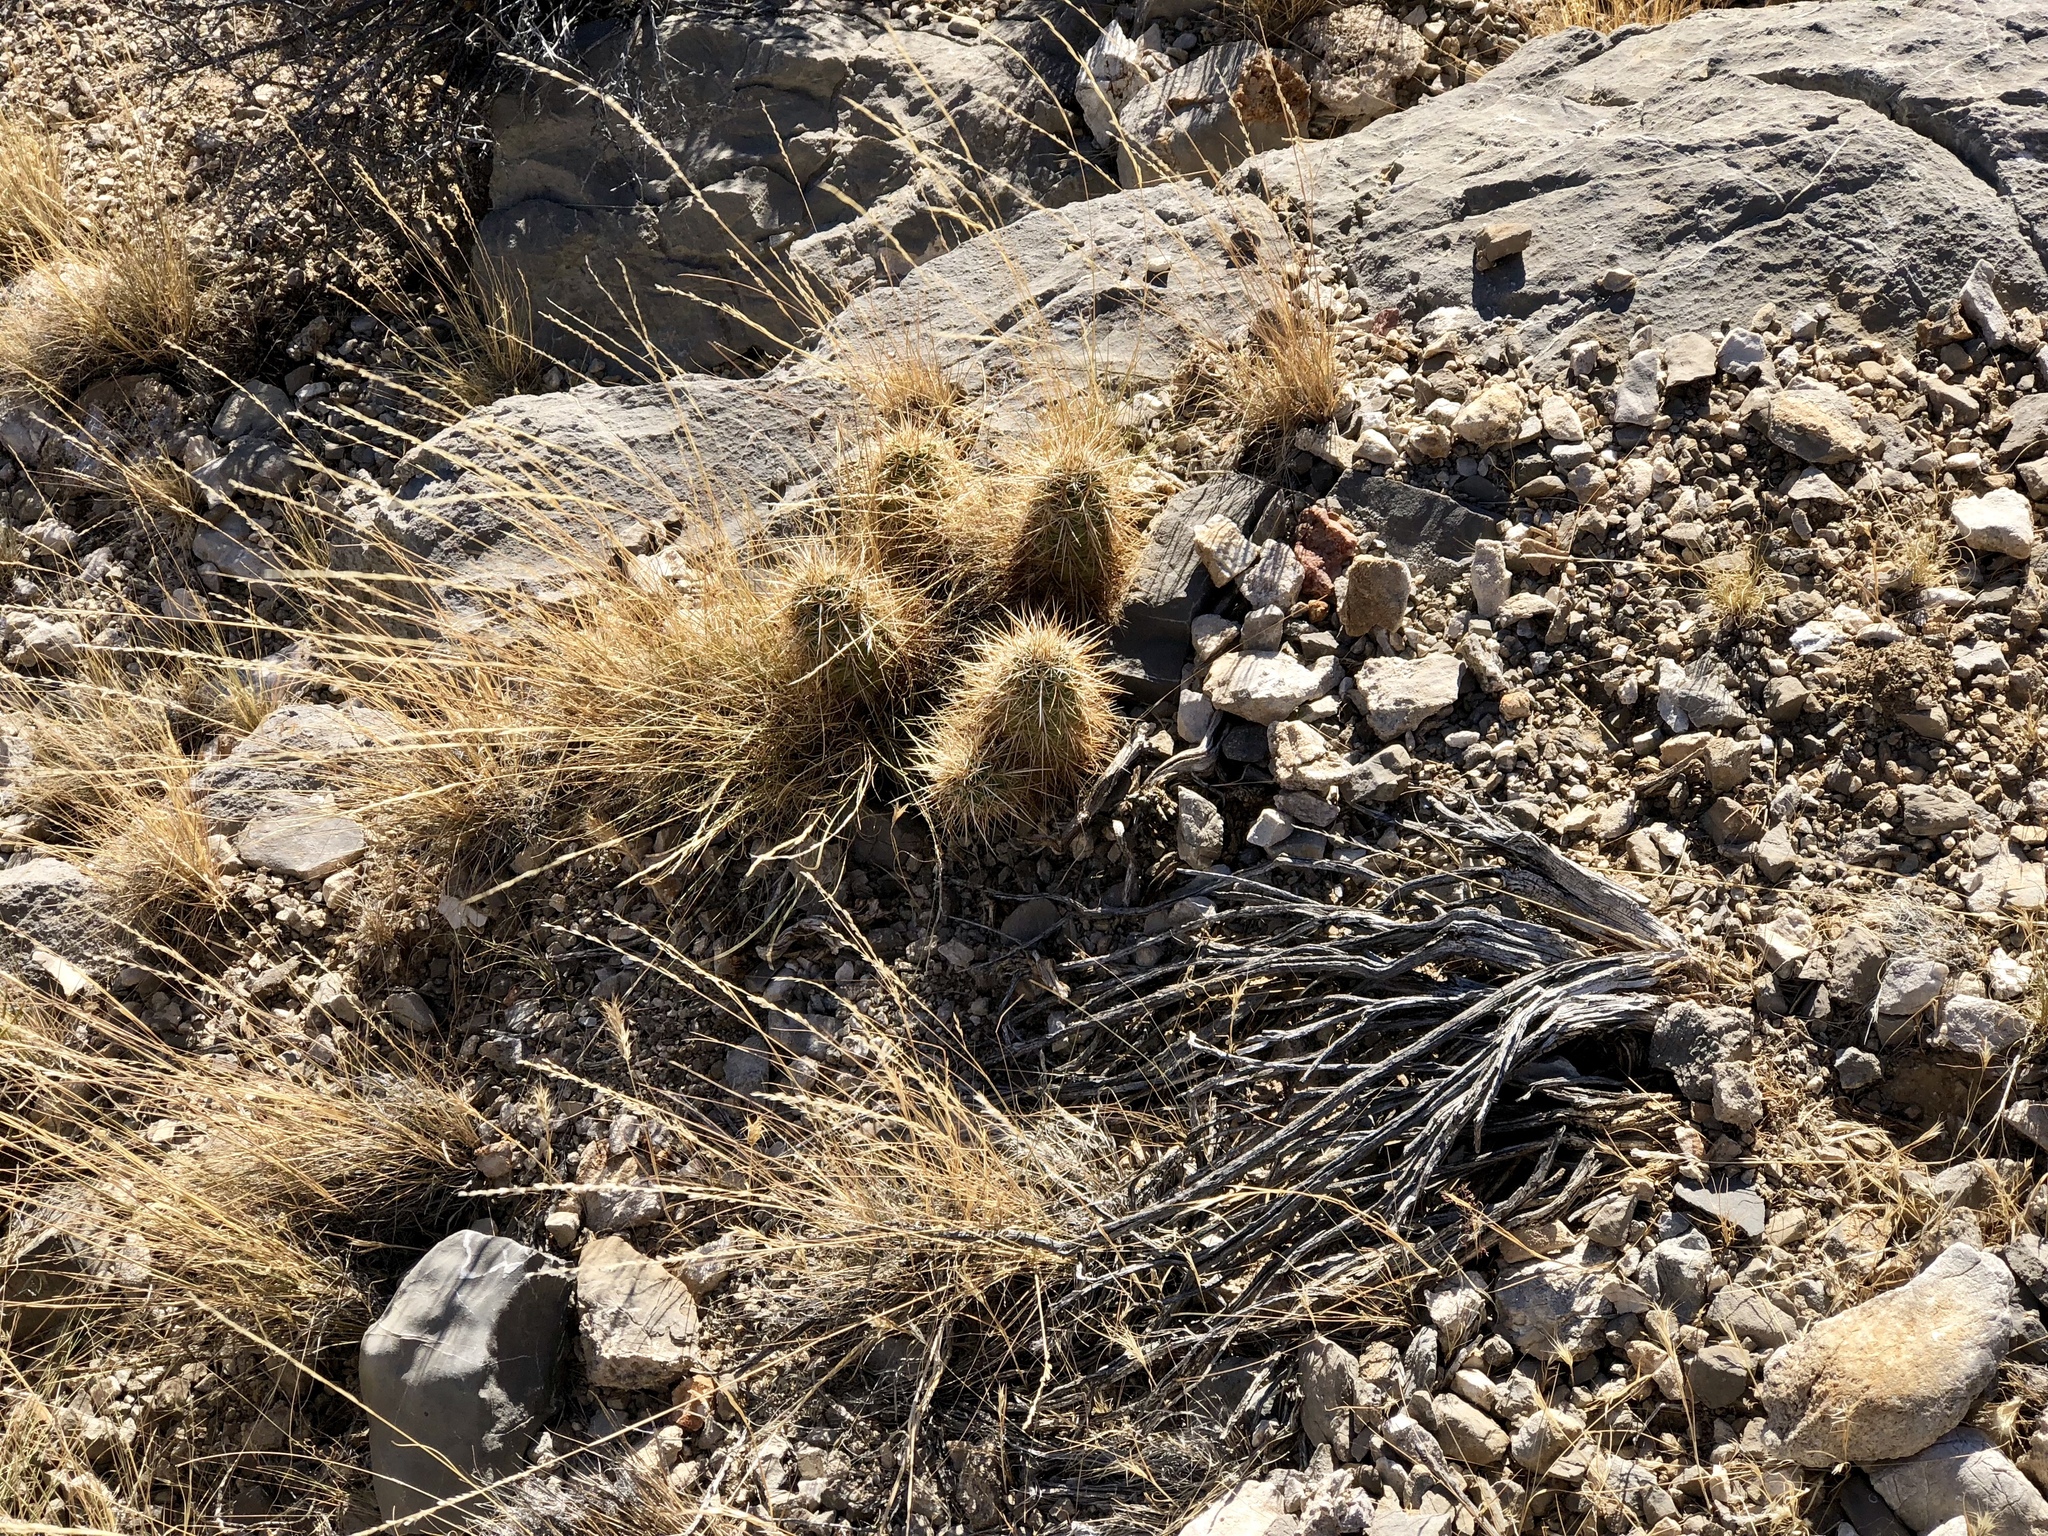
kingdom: Plantae
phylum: Tracheophyta
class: Magnoliopsida
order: Caryophyllales
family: Cactaceae
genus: Echinocereus
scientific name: Echinocereus engelmannii
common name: Engelmann's hedgehog cactus
